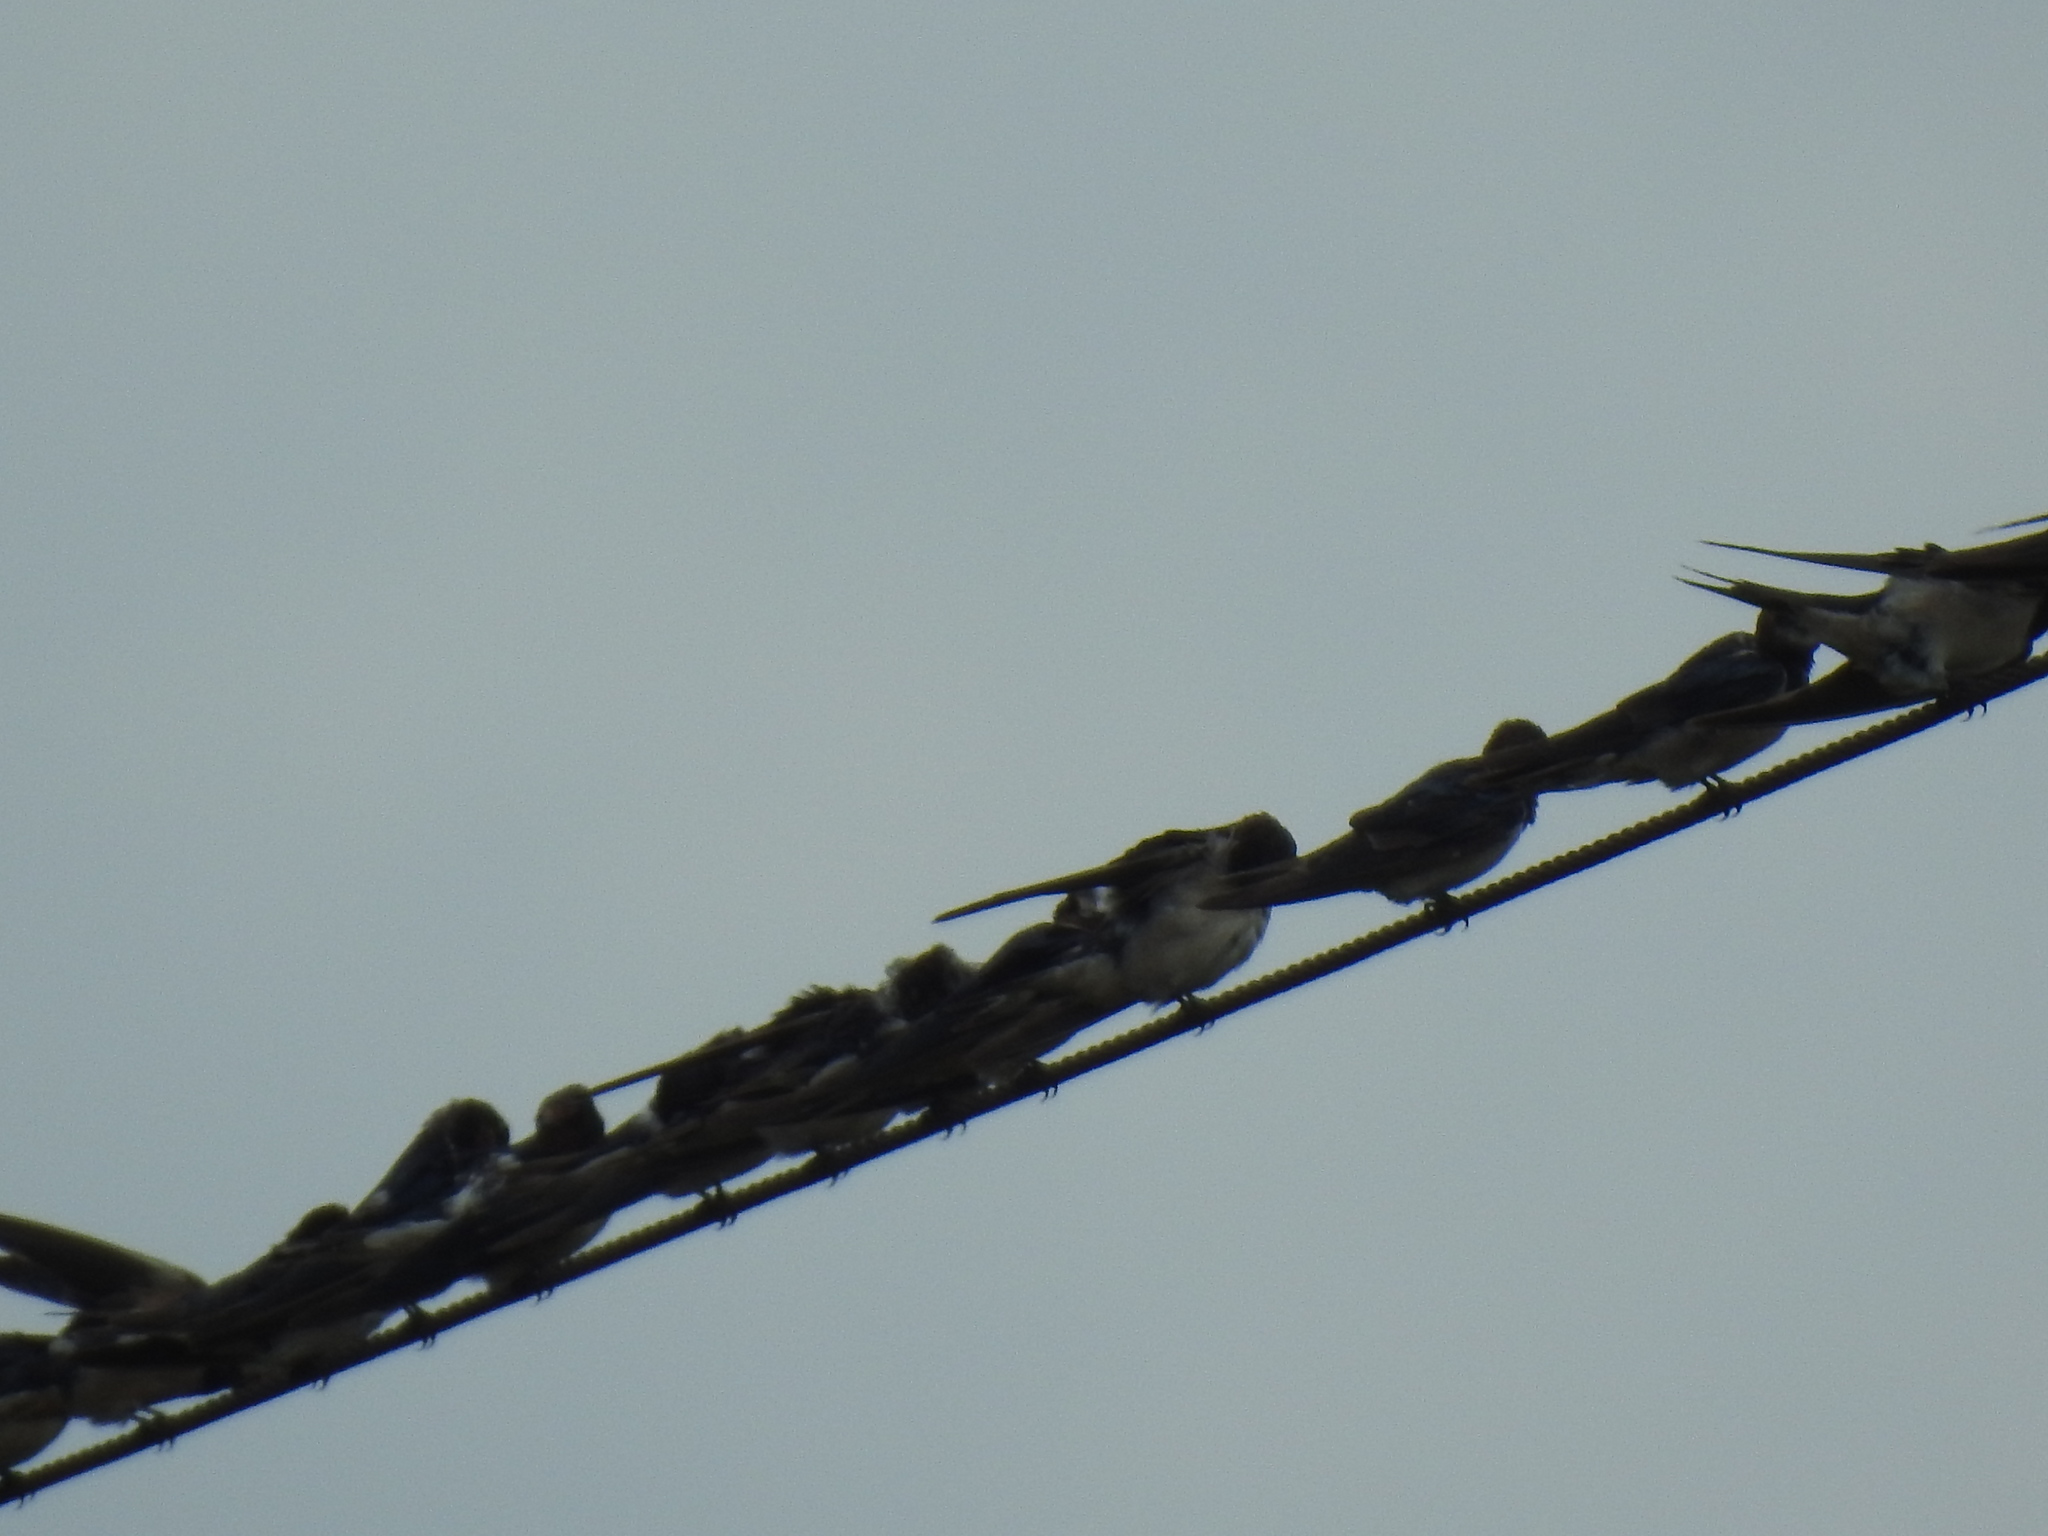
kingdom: Animalia
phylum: Chordata
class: Aves
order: Passeriformes
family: Hirundinidae
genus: Hirundo
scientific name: Hirundo rustica
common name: Barn swallow
